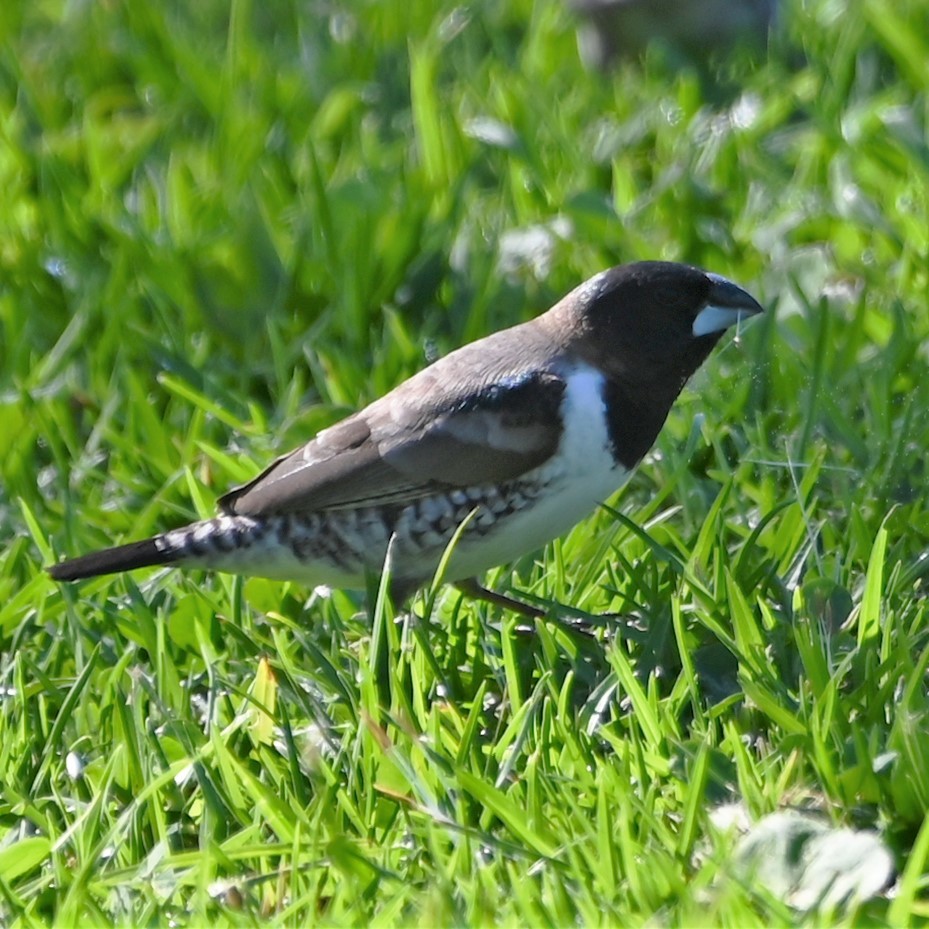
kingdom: Animalia
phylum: Chordata
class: Aves
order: Passeriformes
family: Estrildidae
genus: Lonchura
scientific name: Lonchura cucullata
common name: Bronze mannikin
